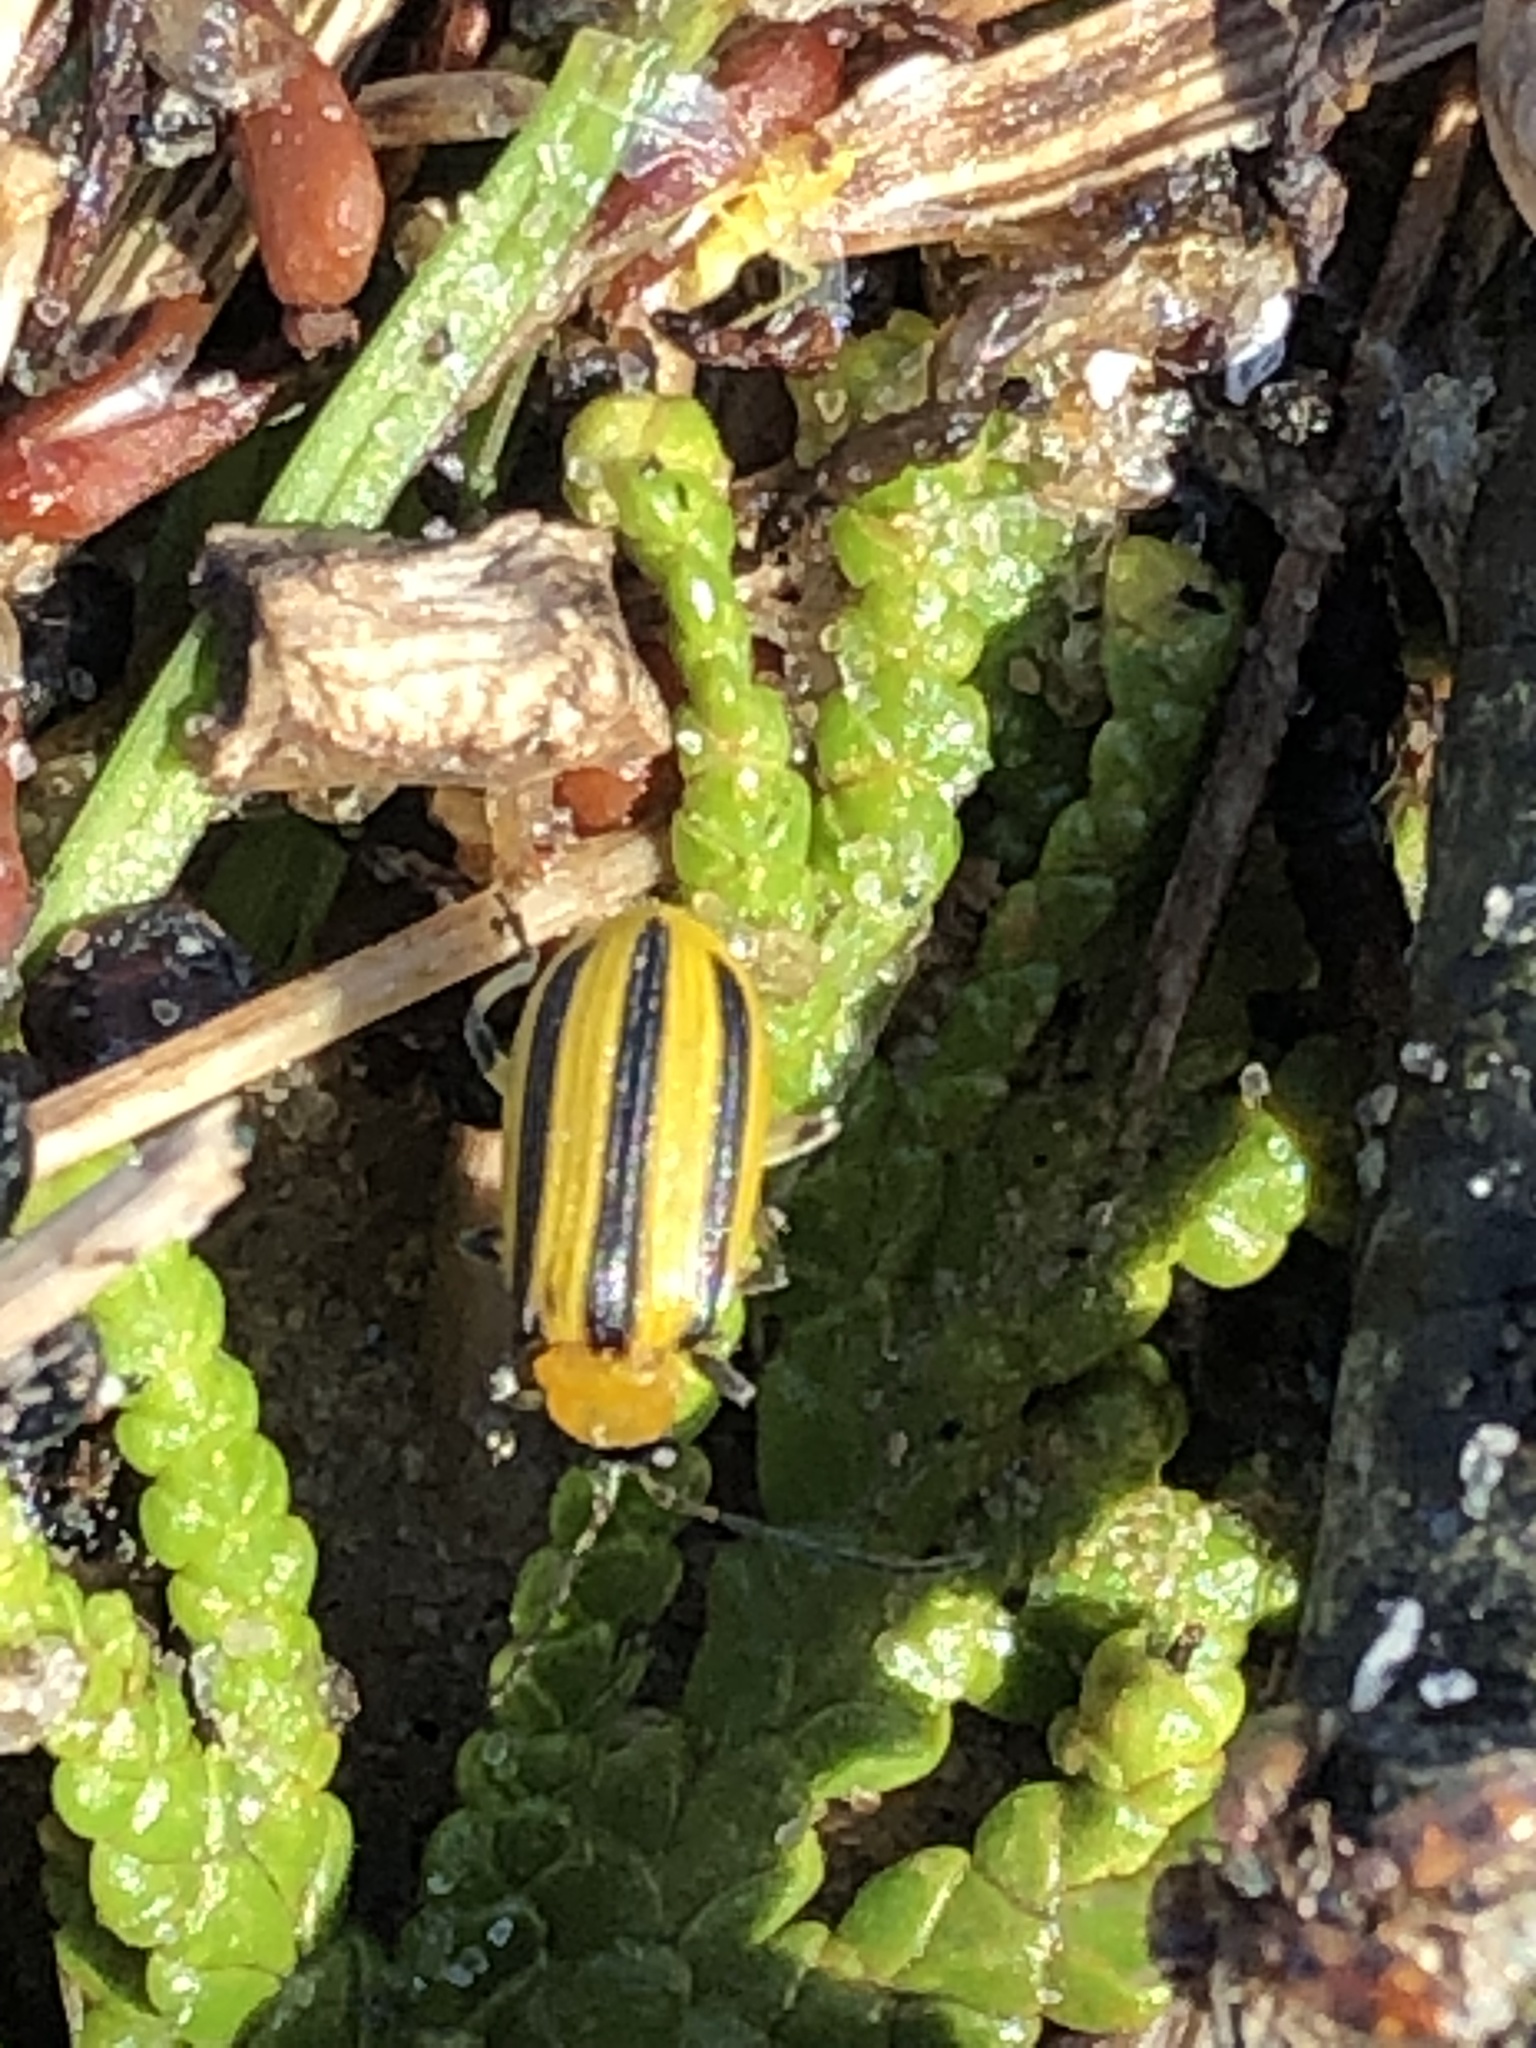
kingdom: Animalia
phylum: Arthropoda
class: Insecta
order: Coleoptera
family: Chrysomelidae
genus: Acalymma
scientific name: Acalymma vittatum
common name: Striped cucumber beetle
